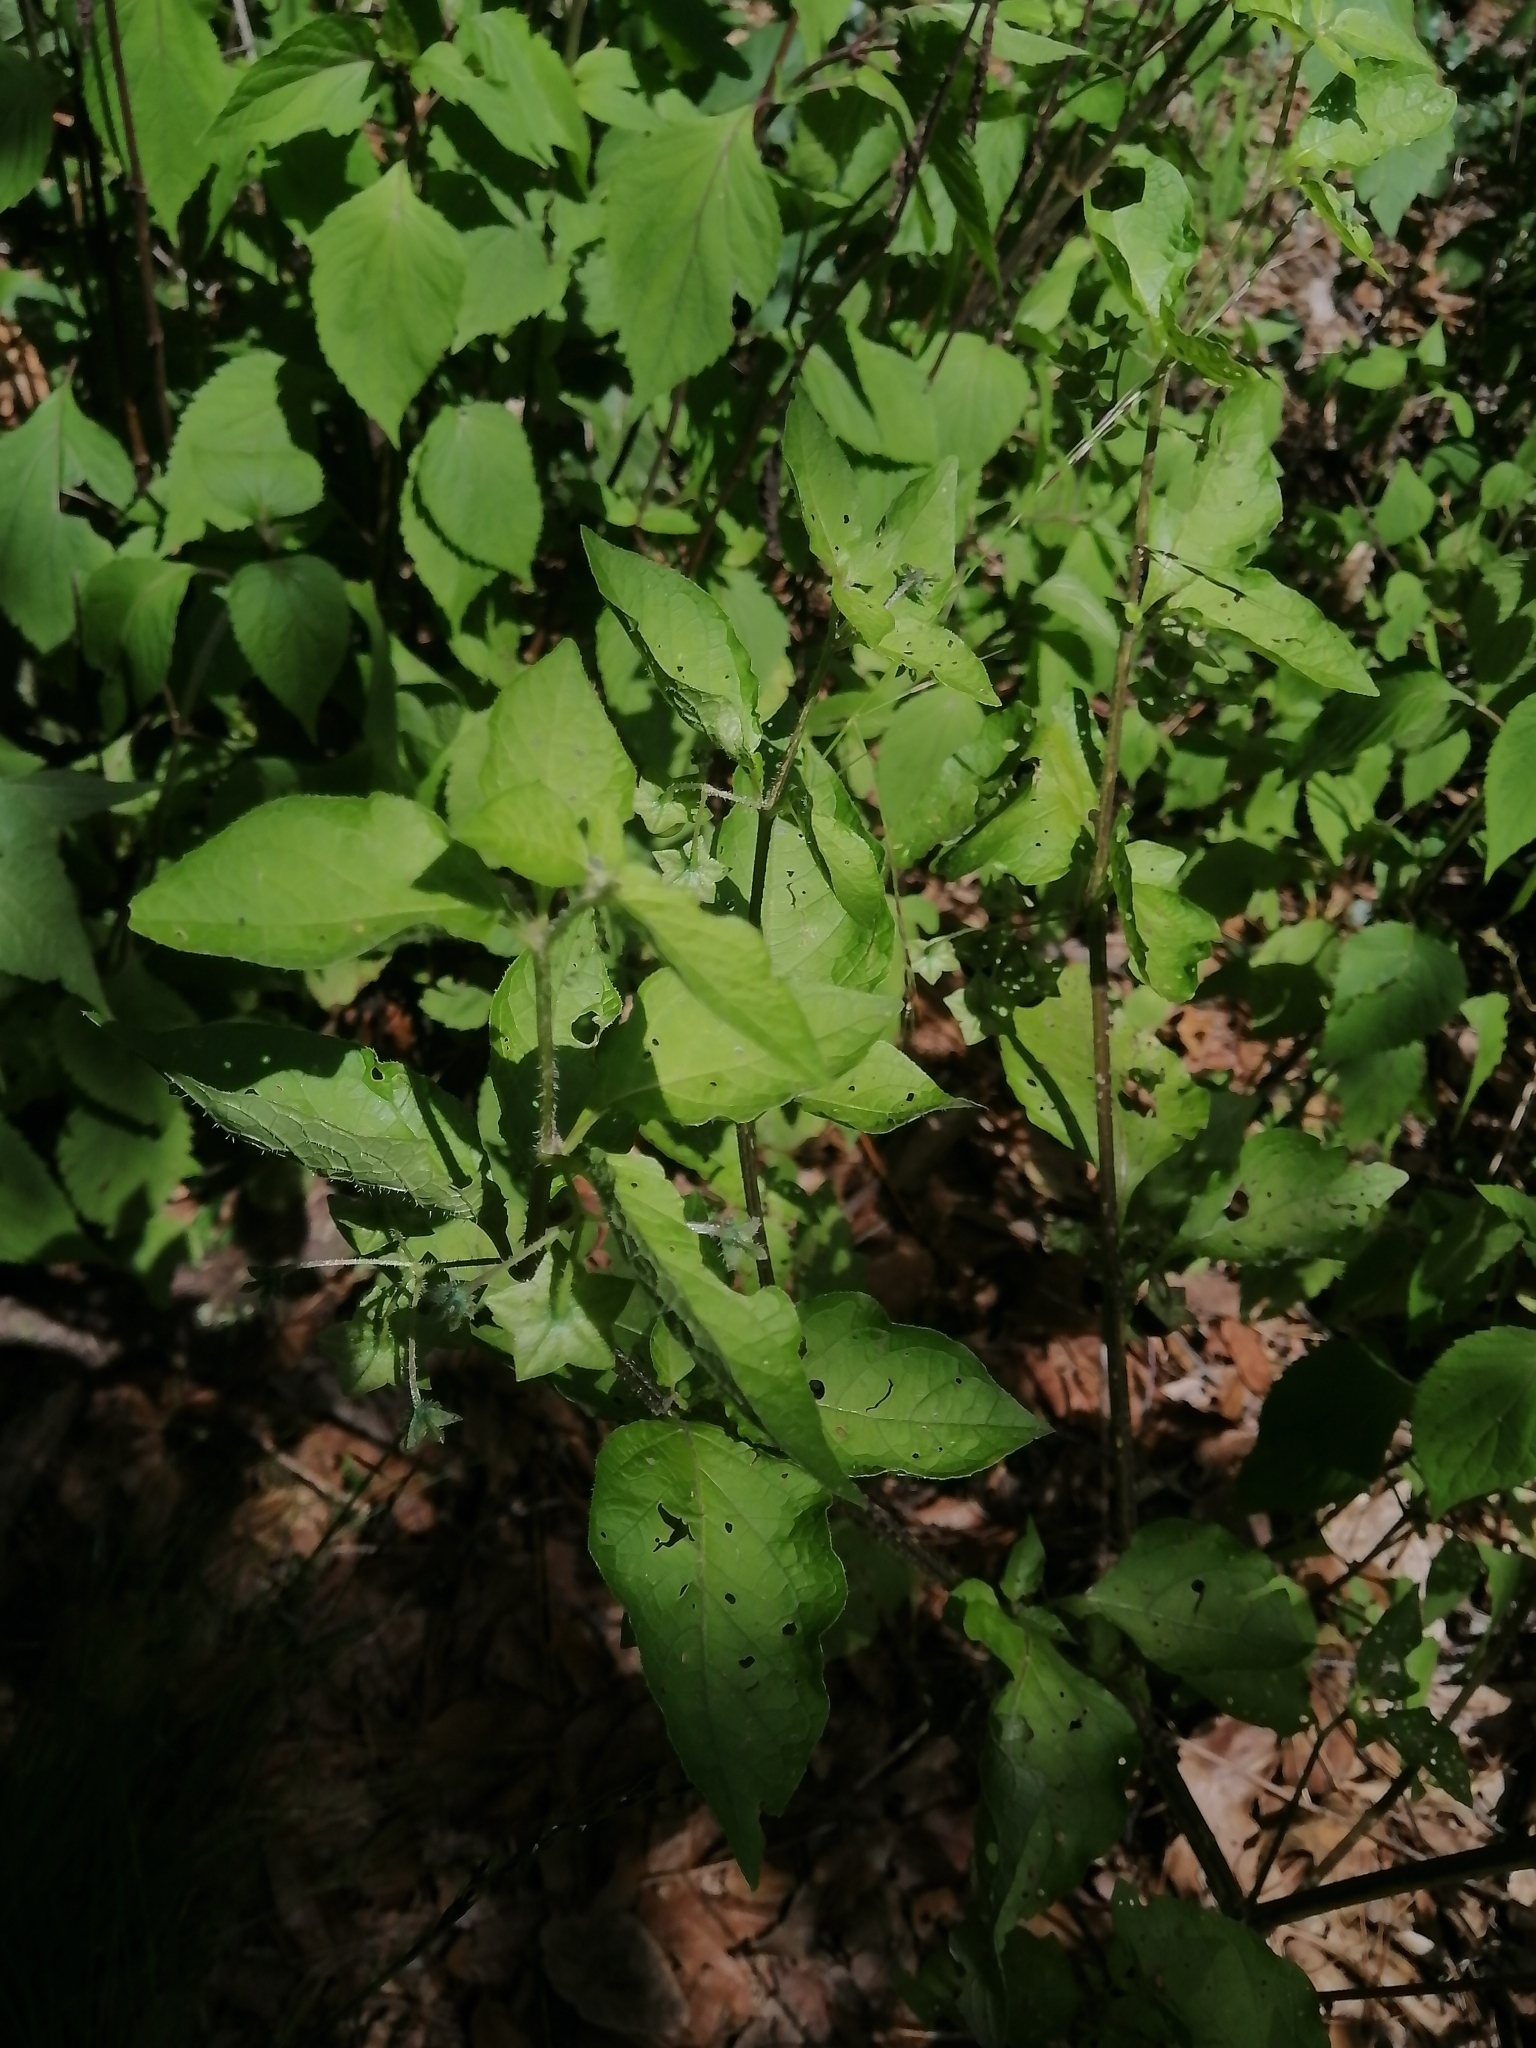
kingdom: Plantae
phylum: Tracheophyta
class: Magnoliopsida
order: Solanales
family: Solanaceae
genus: Jaltomata
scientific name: Jaltomata procumbens
